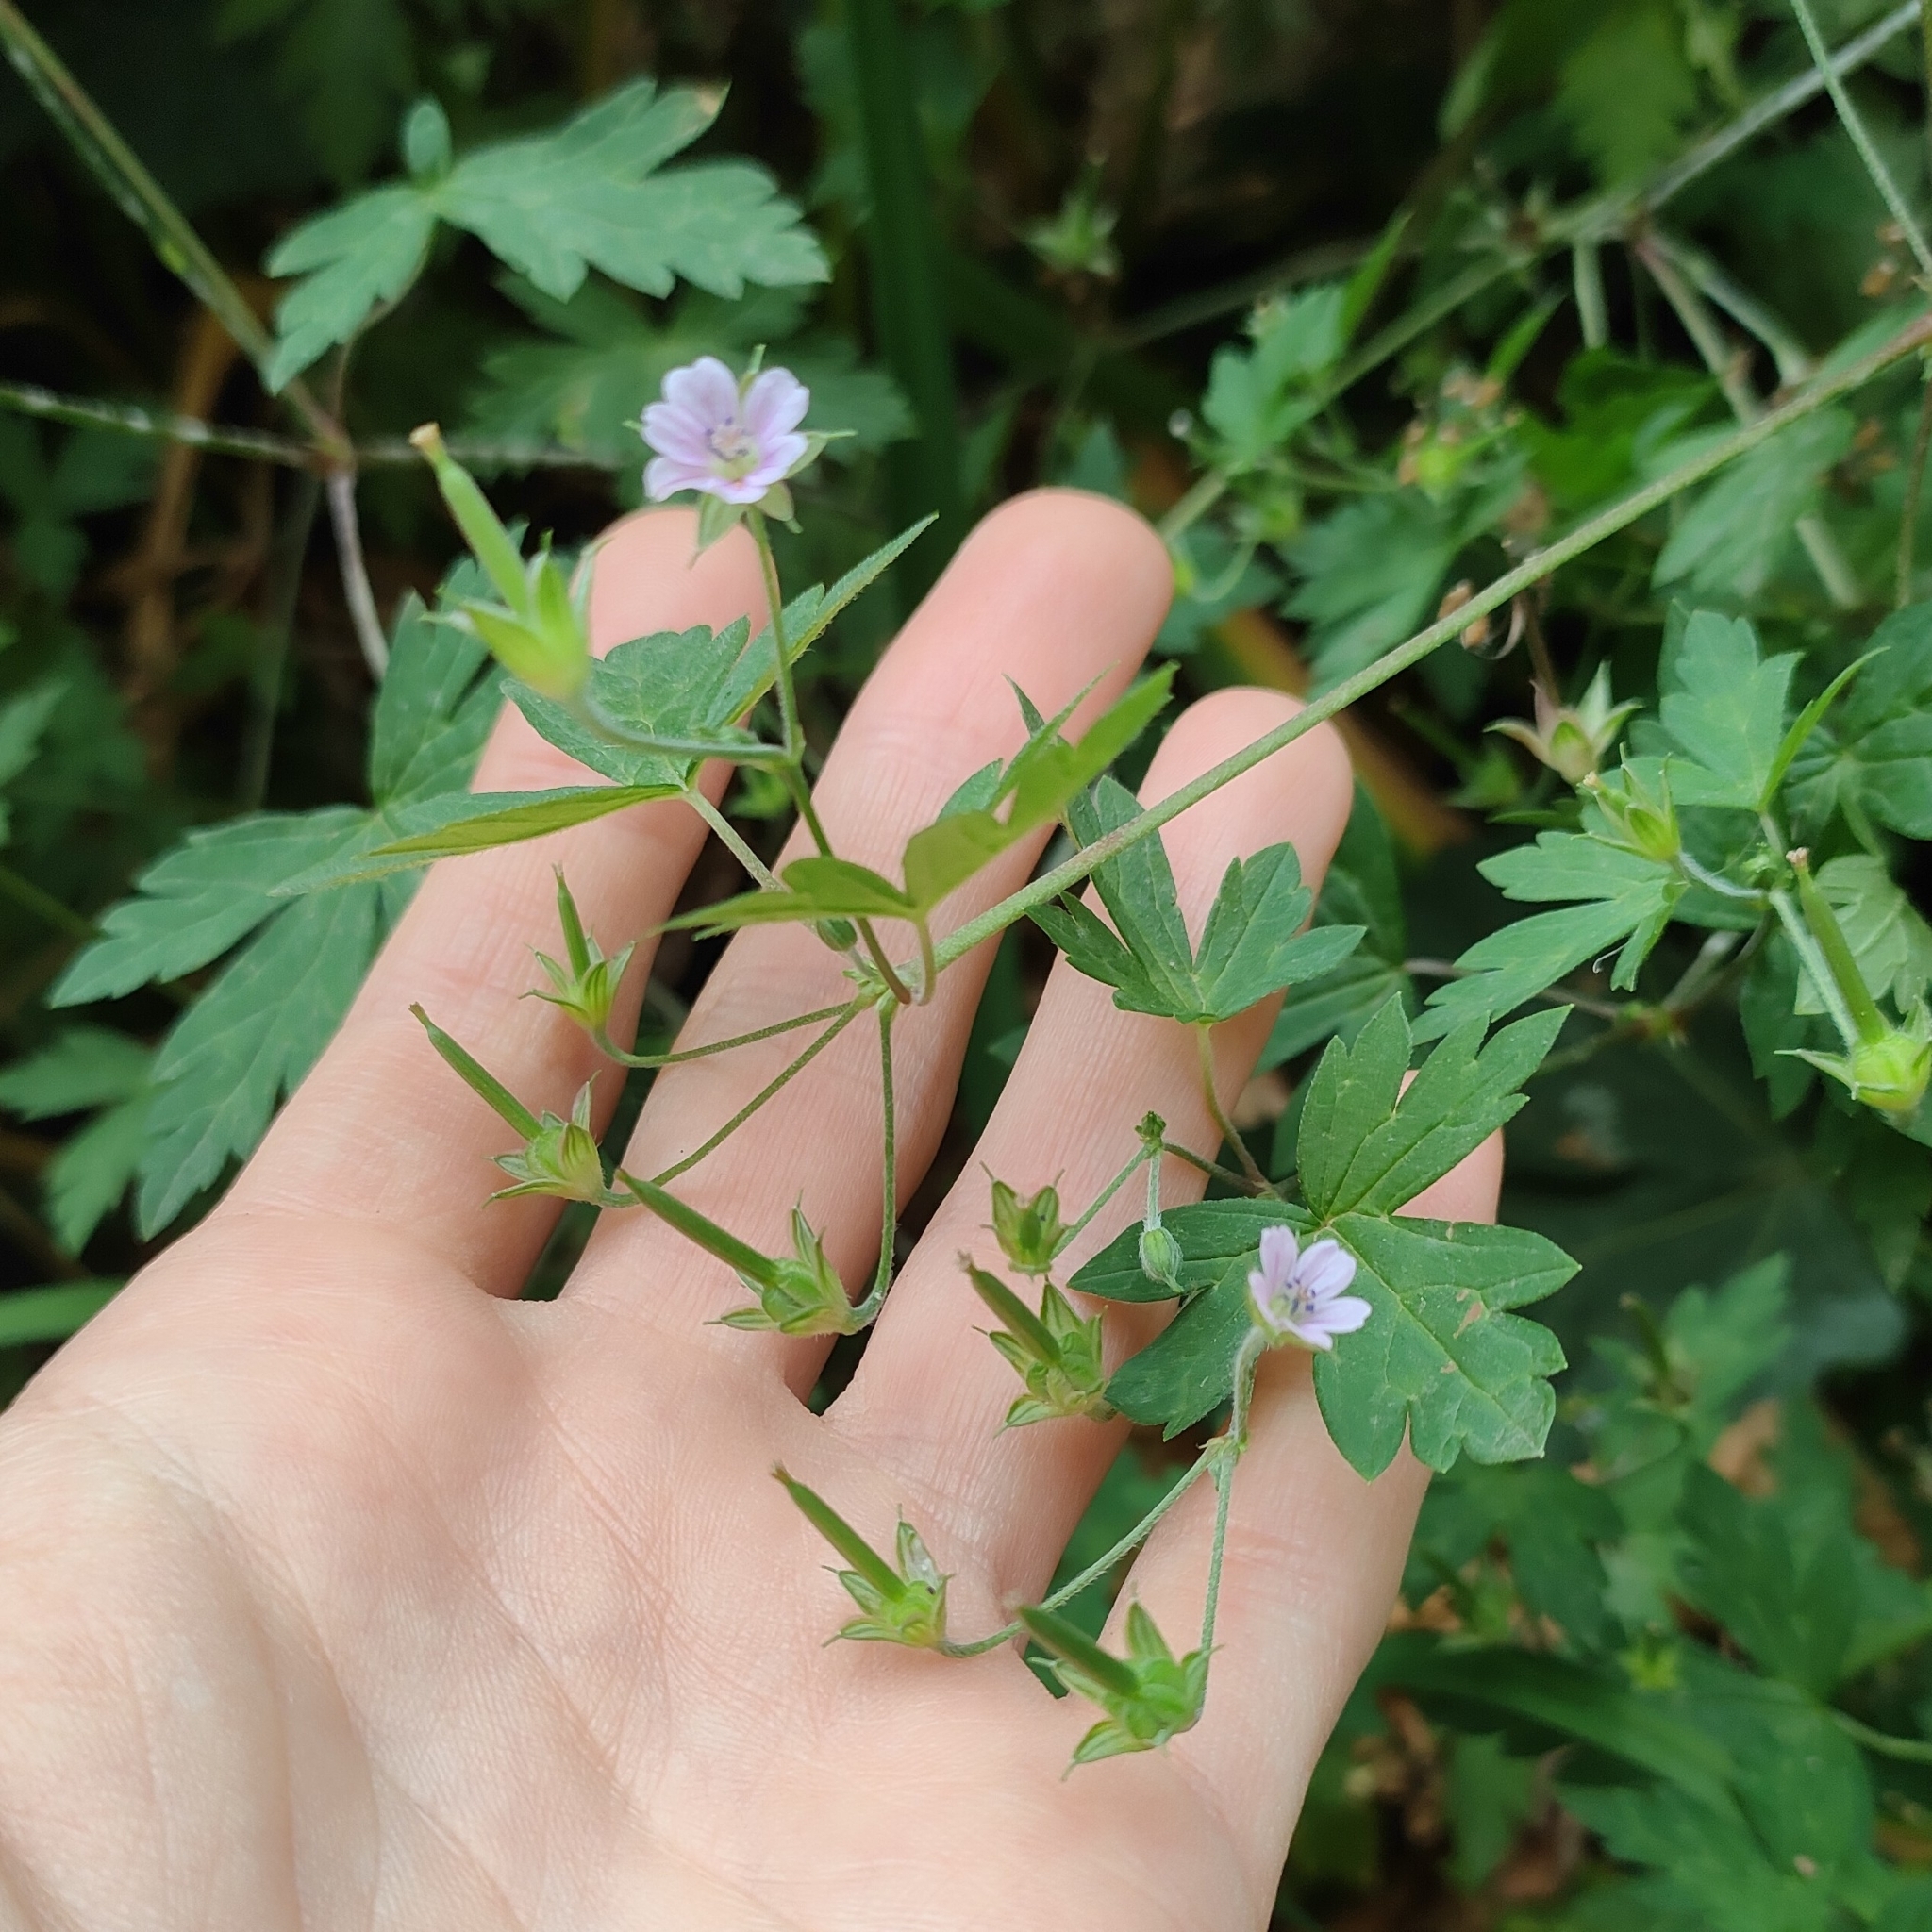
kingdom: Plantae
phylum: Tracheophyta
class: Magnoliopsida
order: Geraniales
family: Geraniaceae
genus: Geranium
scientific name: Geranium sibiricum
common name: Siberian crane's-bill
